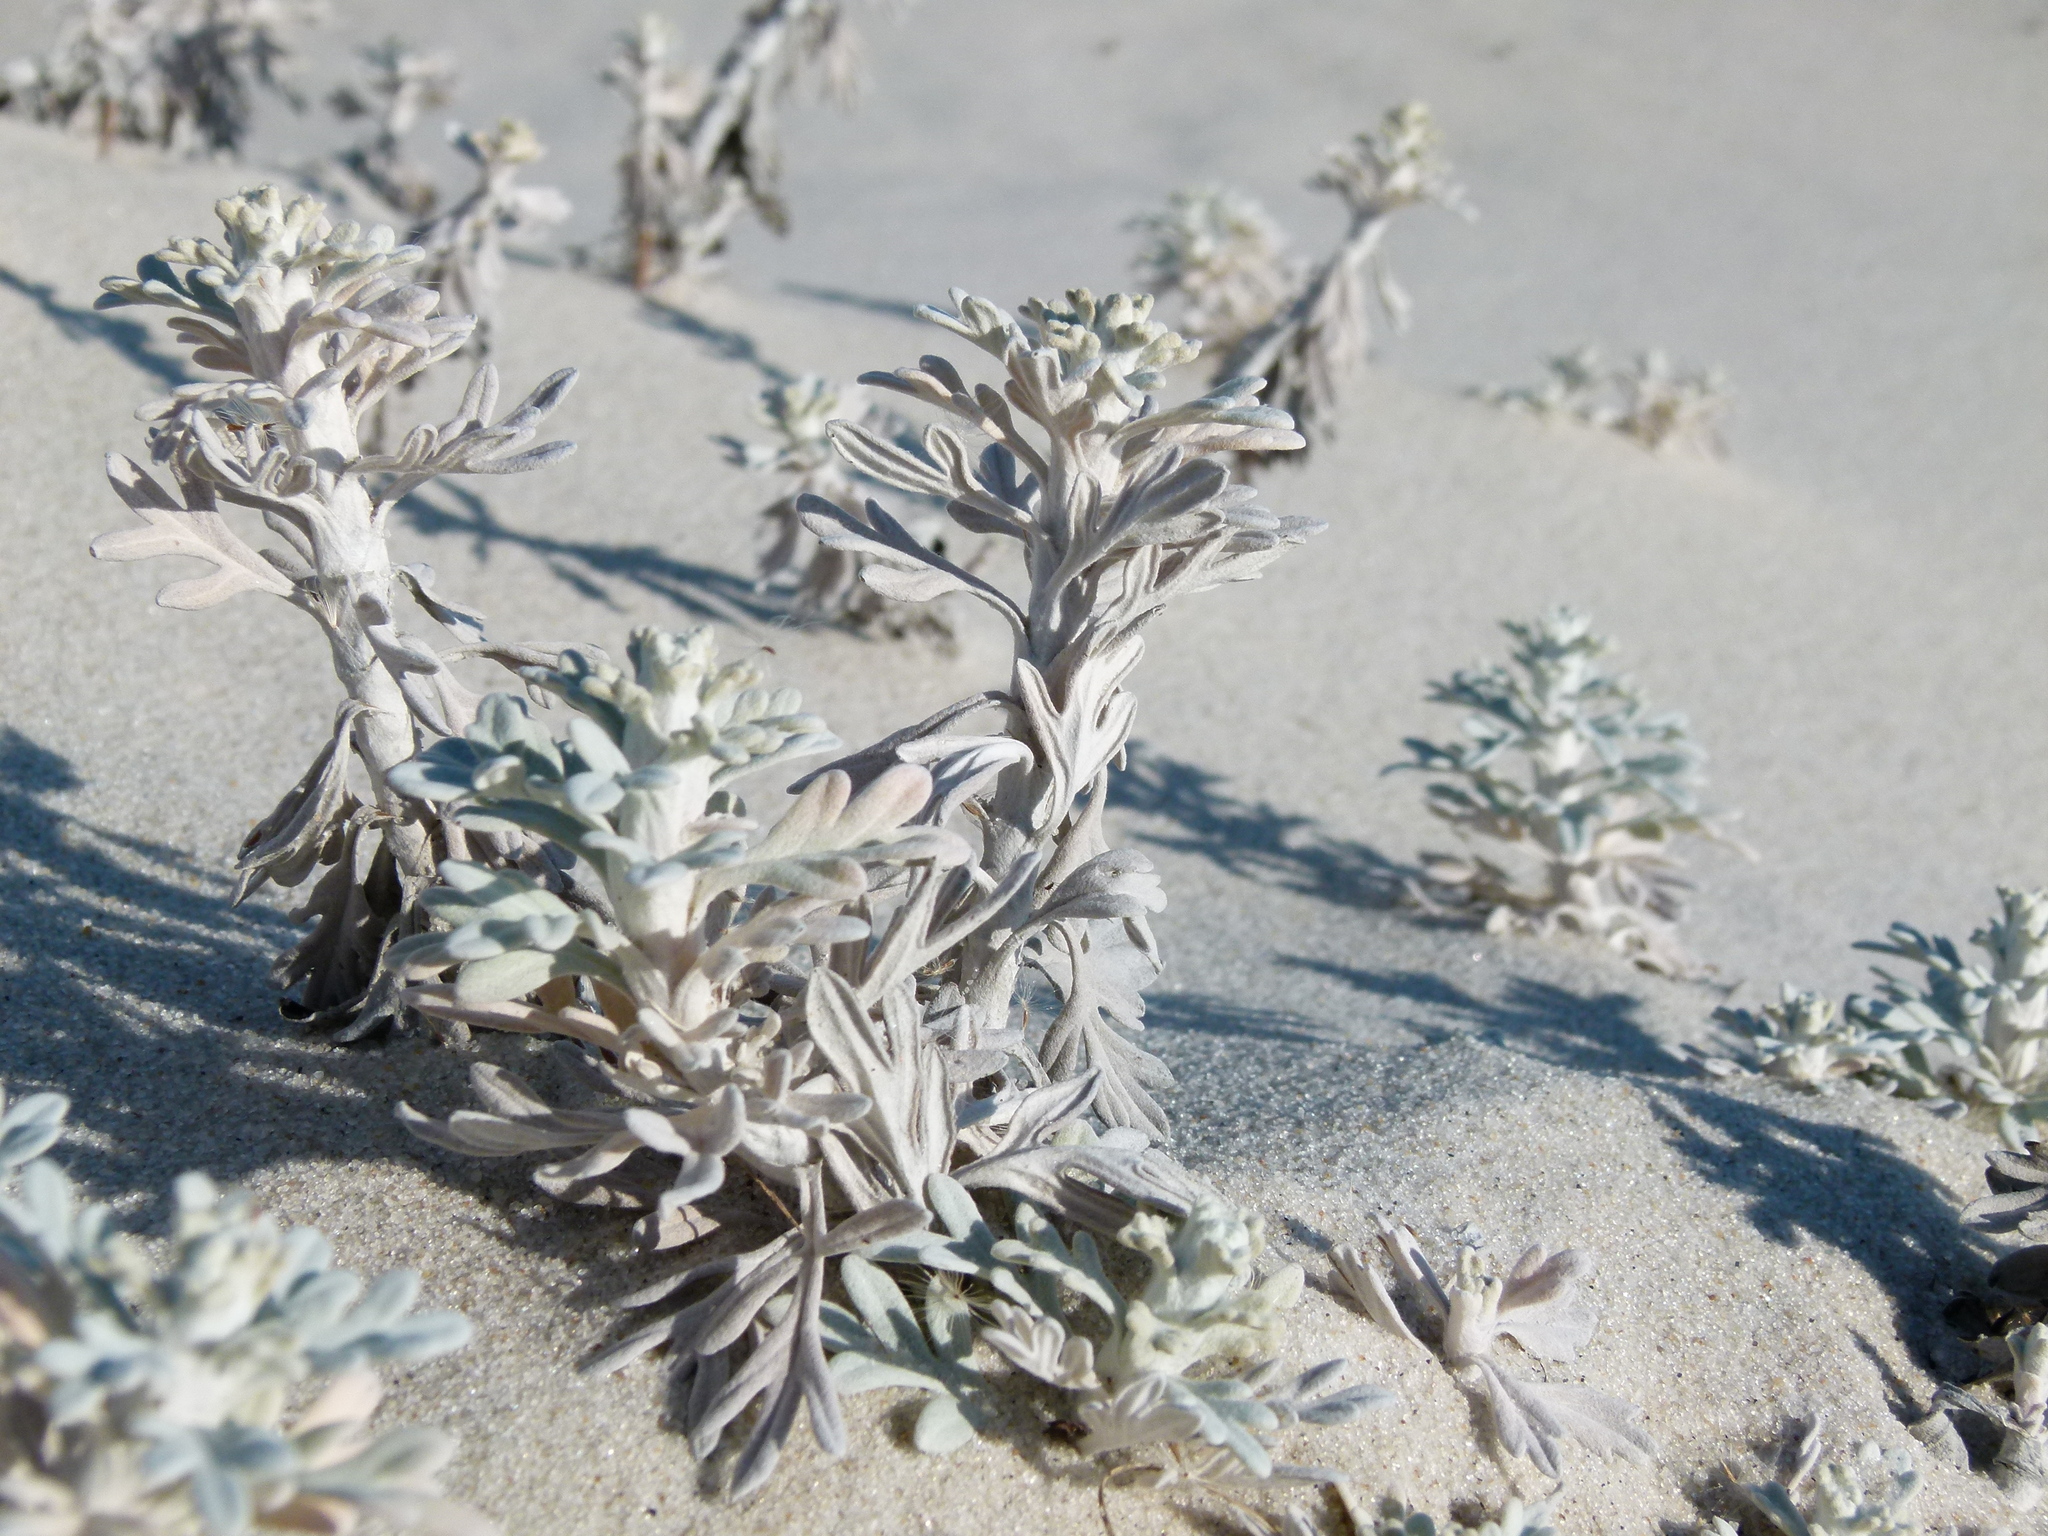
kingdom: Plantae
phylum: Tracheophyta
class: Magnoliopsida
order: Asterales
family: Asteraceae
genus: Artemisia
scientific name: Artemisia stelleriana
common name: Beach wormwood
